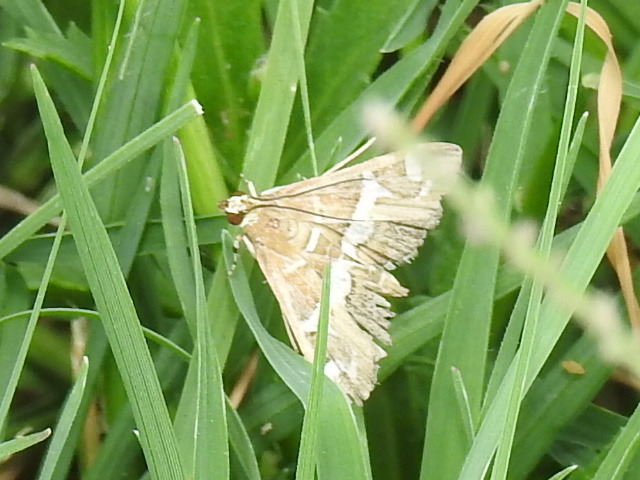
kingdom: Animalia
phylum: Arthropoda
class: Insecta
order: Lepidoptera
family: Crambidae
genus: Spoladea
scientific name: Spoladea recurvalis
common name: Beet webworm moth
